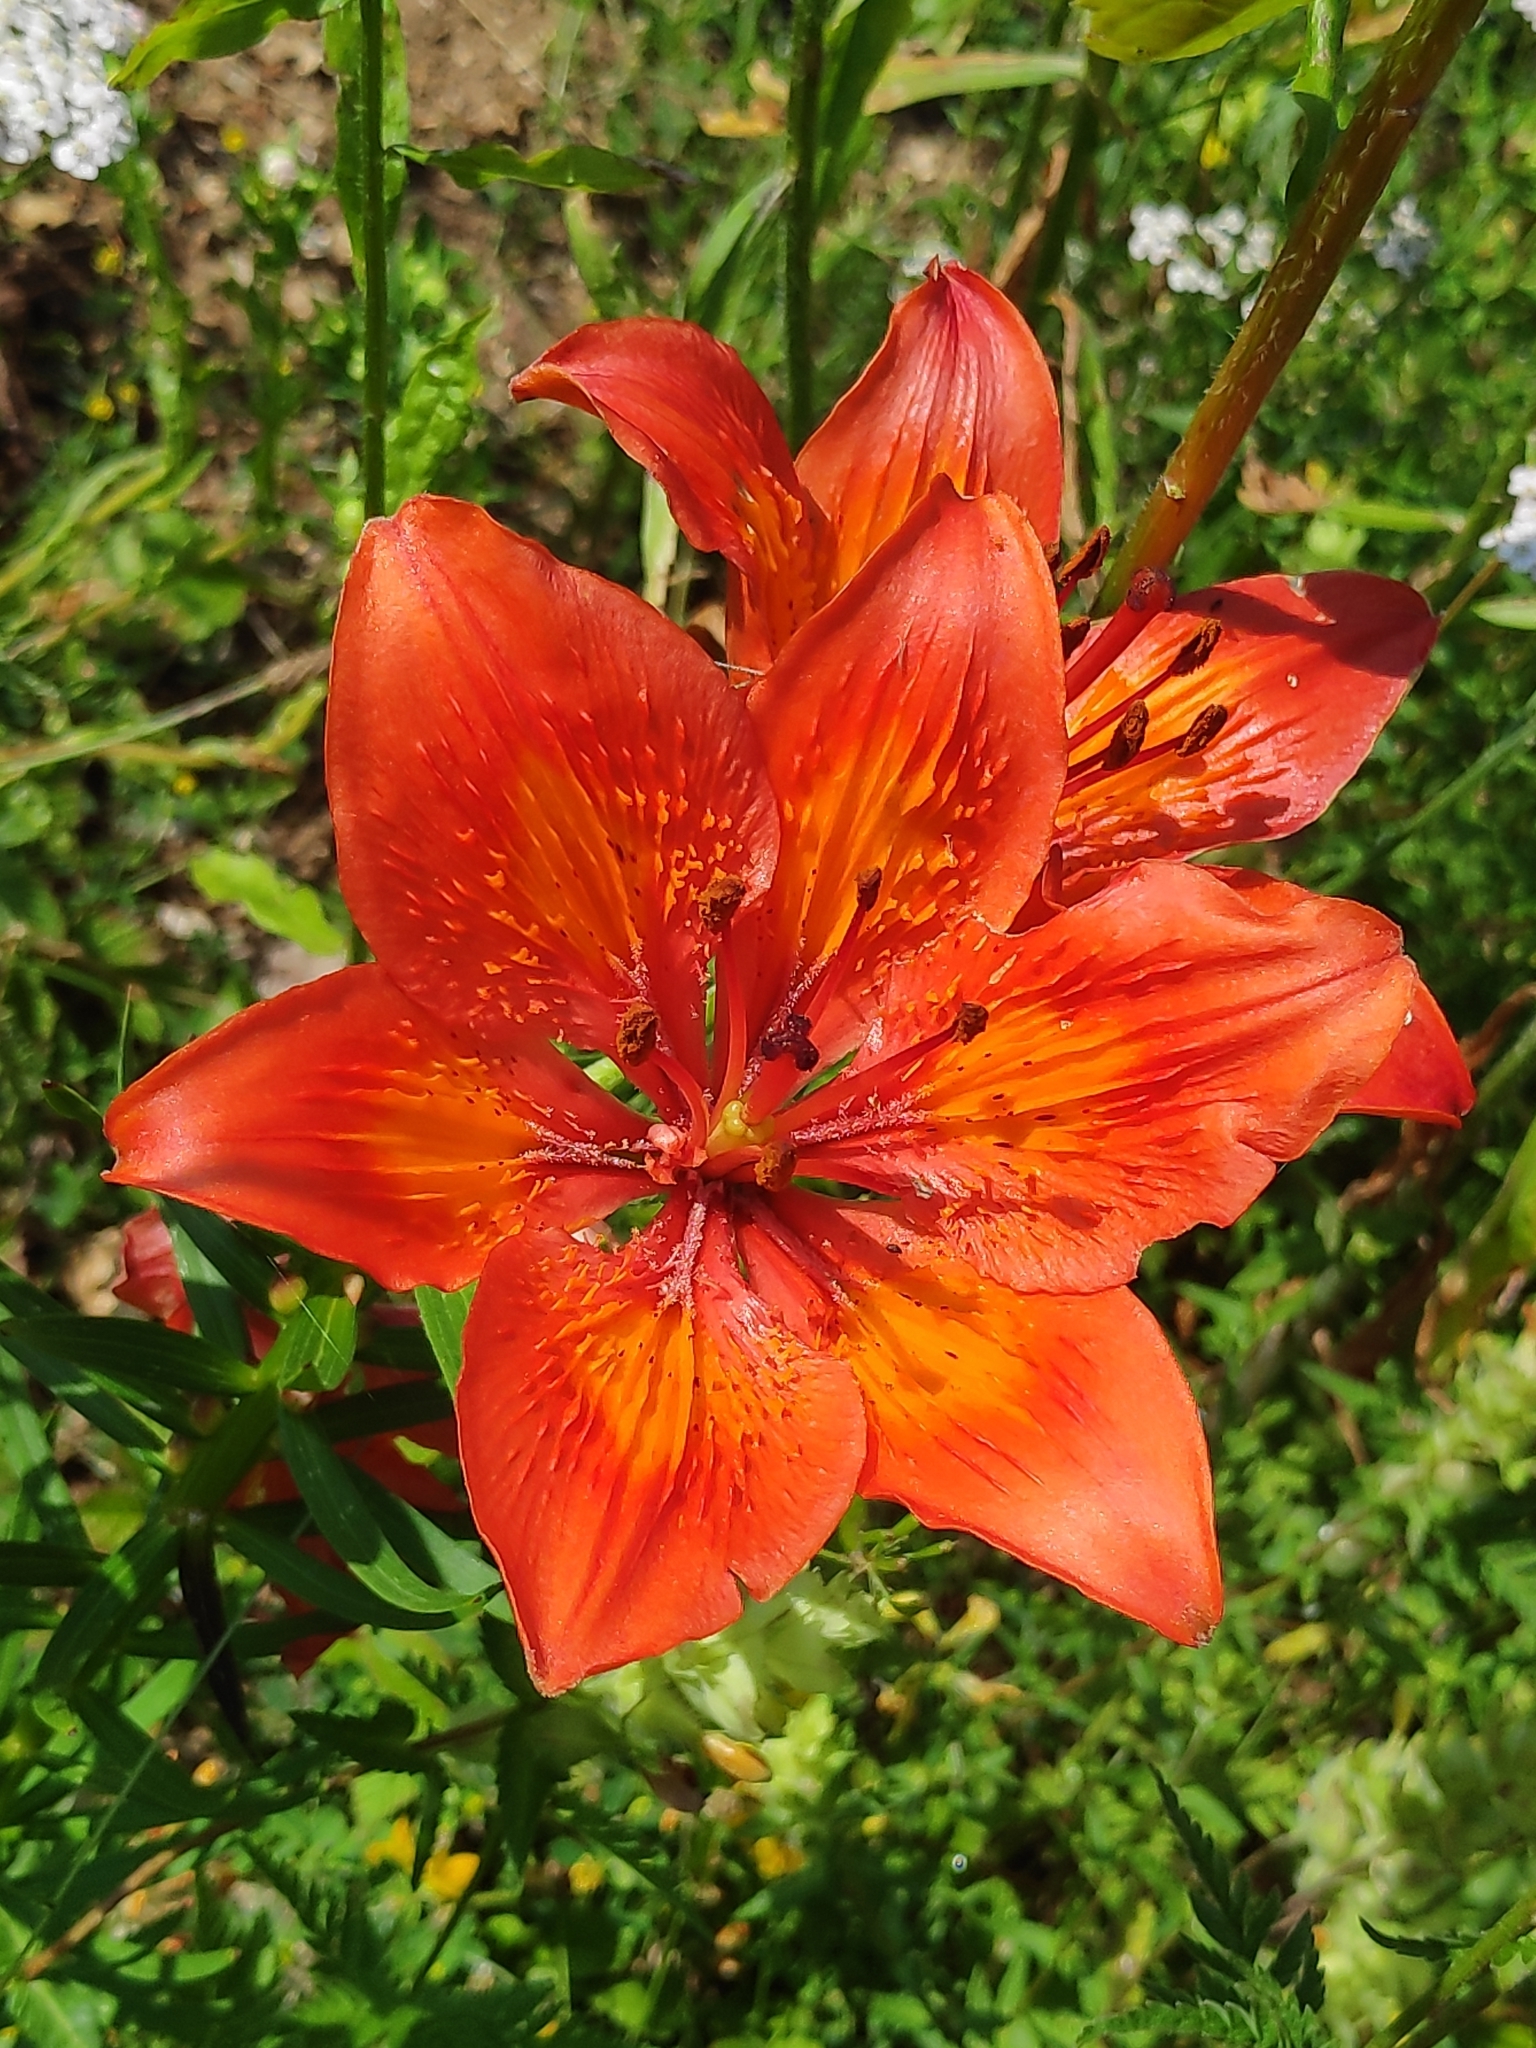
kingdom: Plantae
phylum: Tracheophyta
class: Liliopsida
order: Liliales
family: Liliaceae
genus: Lilium
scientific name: Lilium bulbiferum
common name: Orange lily
